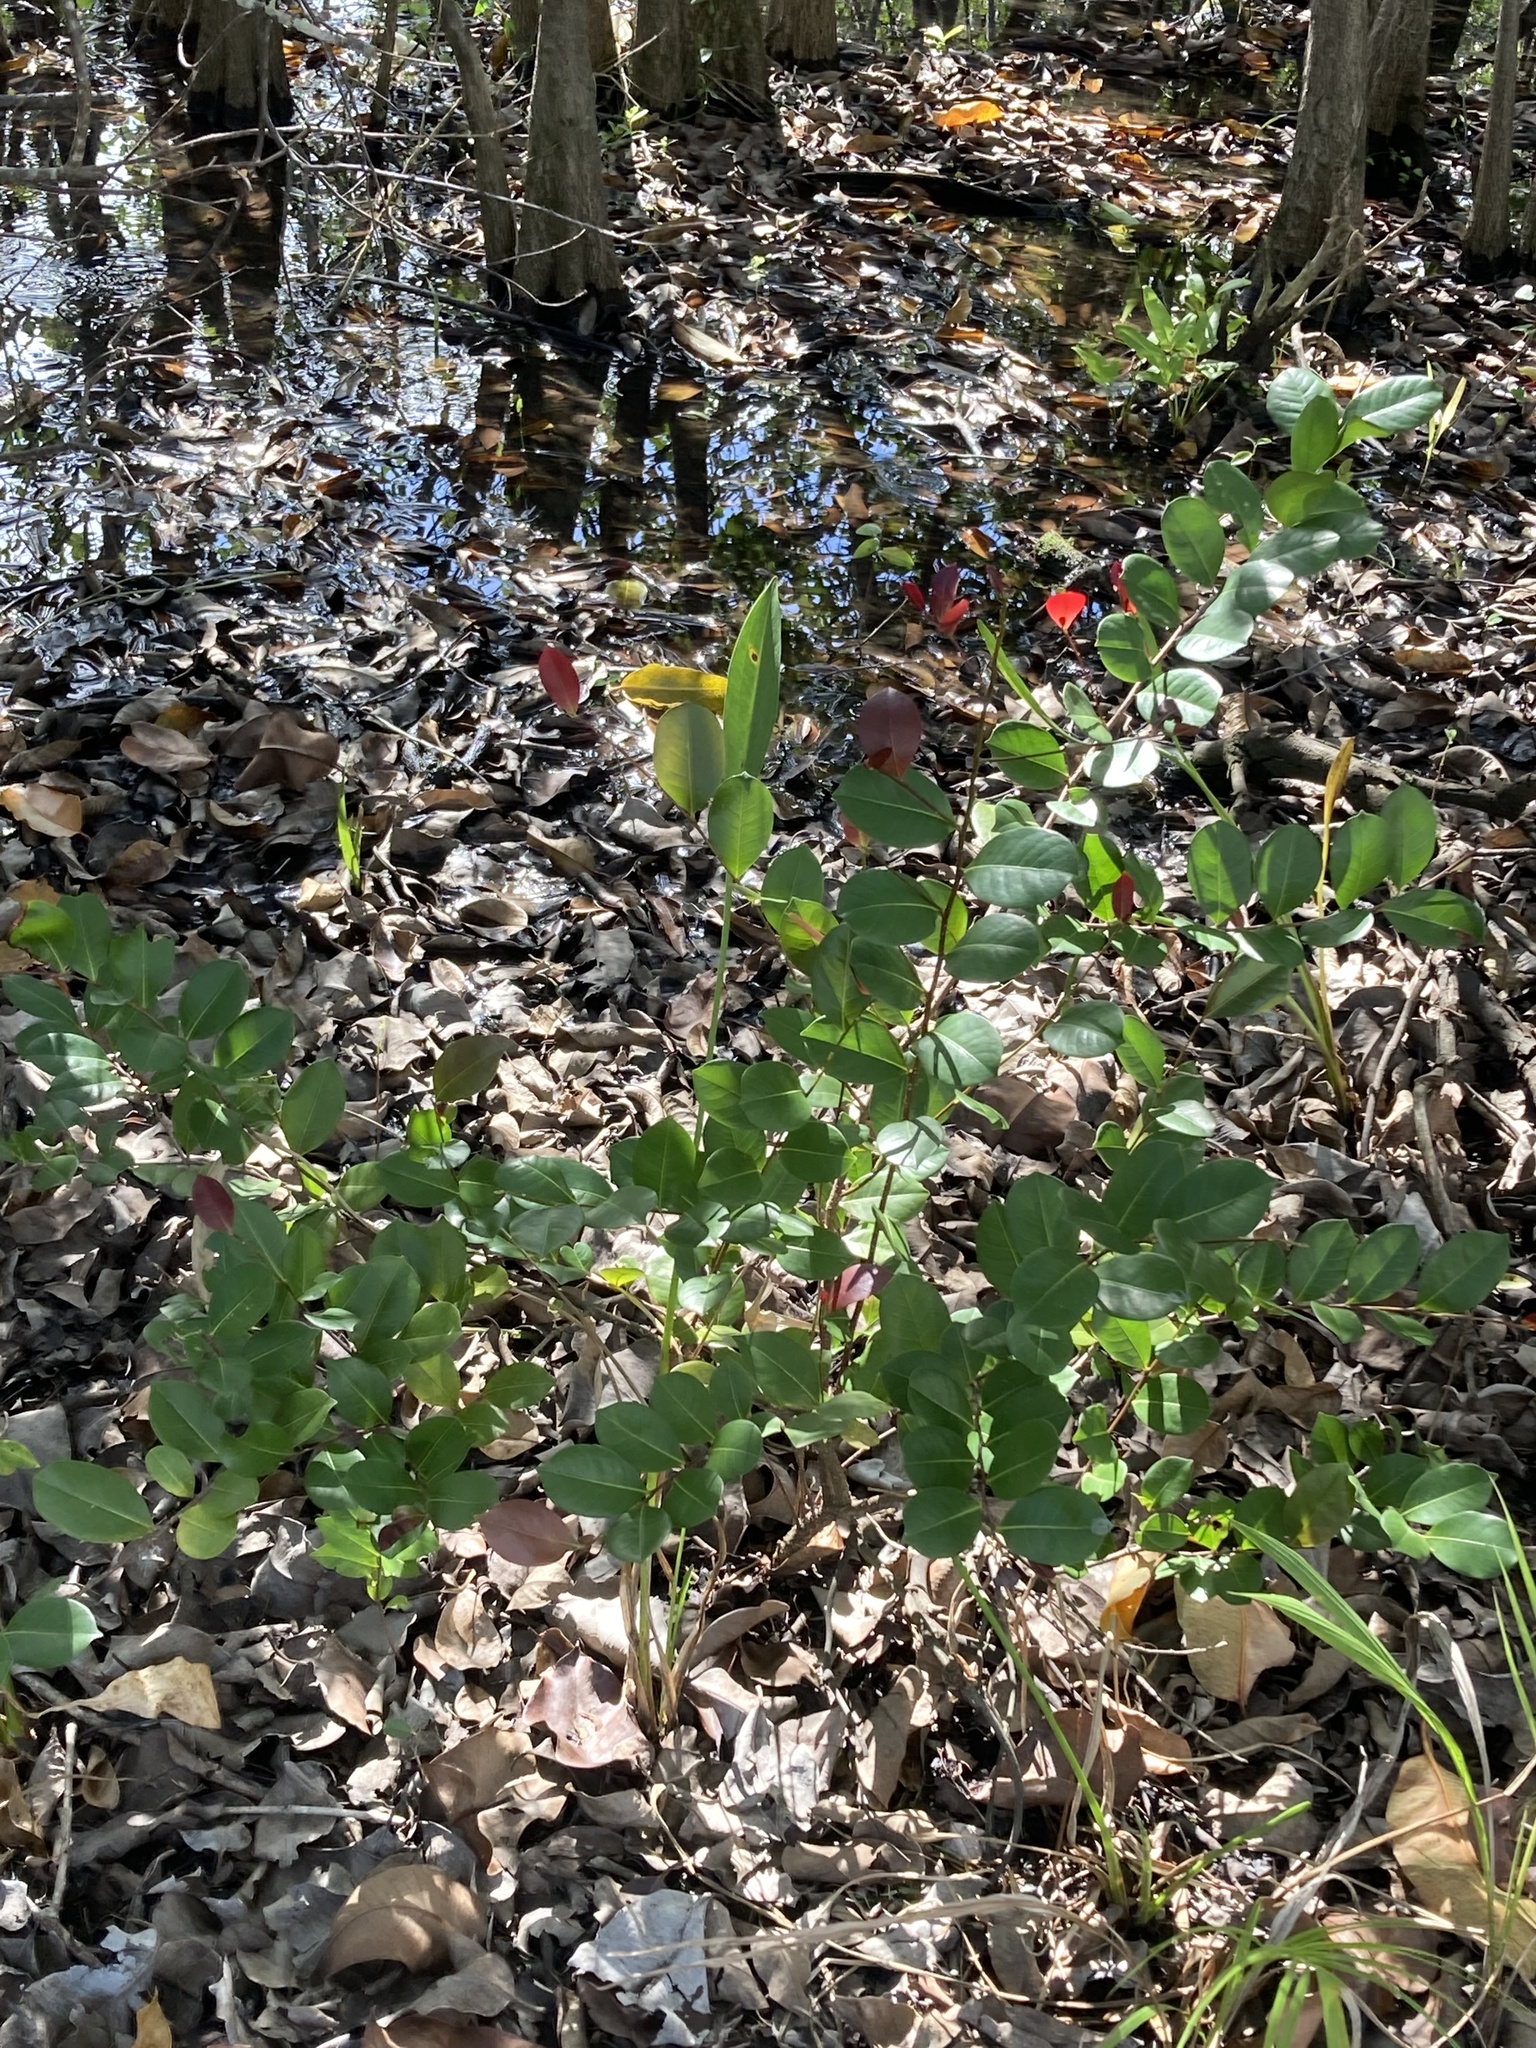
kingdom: Plantae
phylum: Tracheophyta
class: Magnoliopsida
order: Malpighiales
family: Chrysobalanaceae
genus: Chrysobalanus
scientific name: Chrysobalanus icaco
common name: Coco plum
